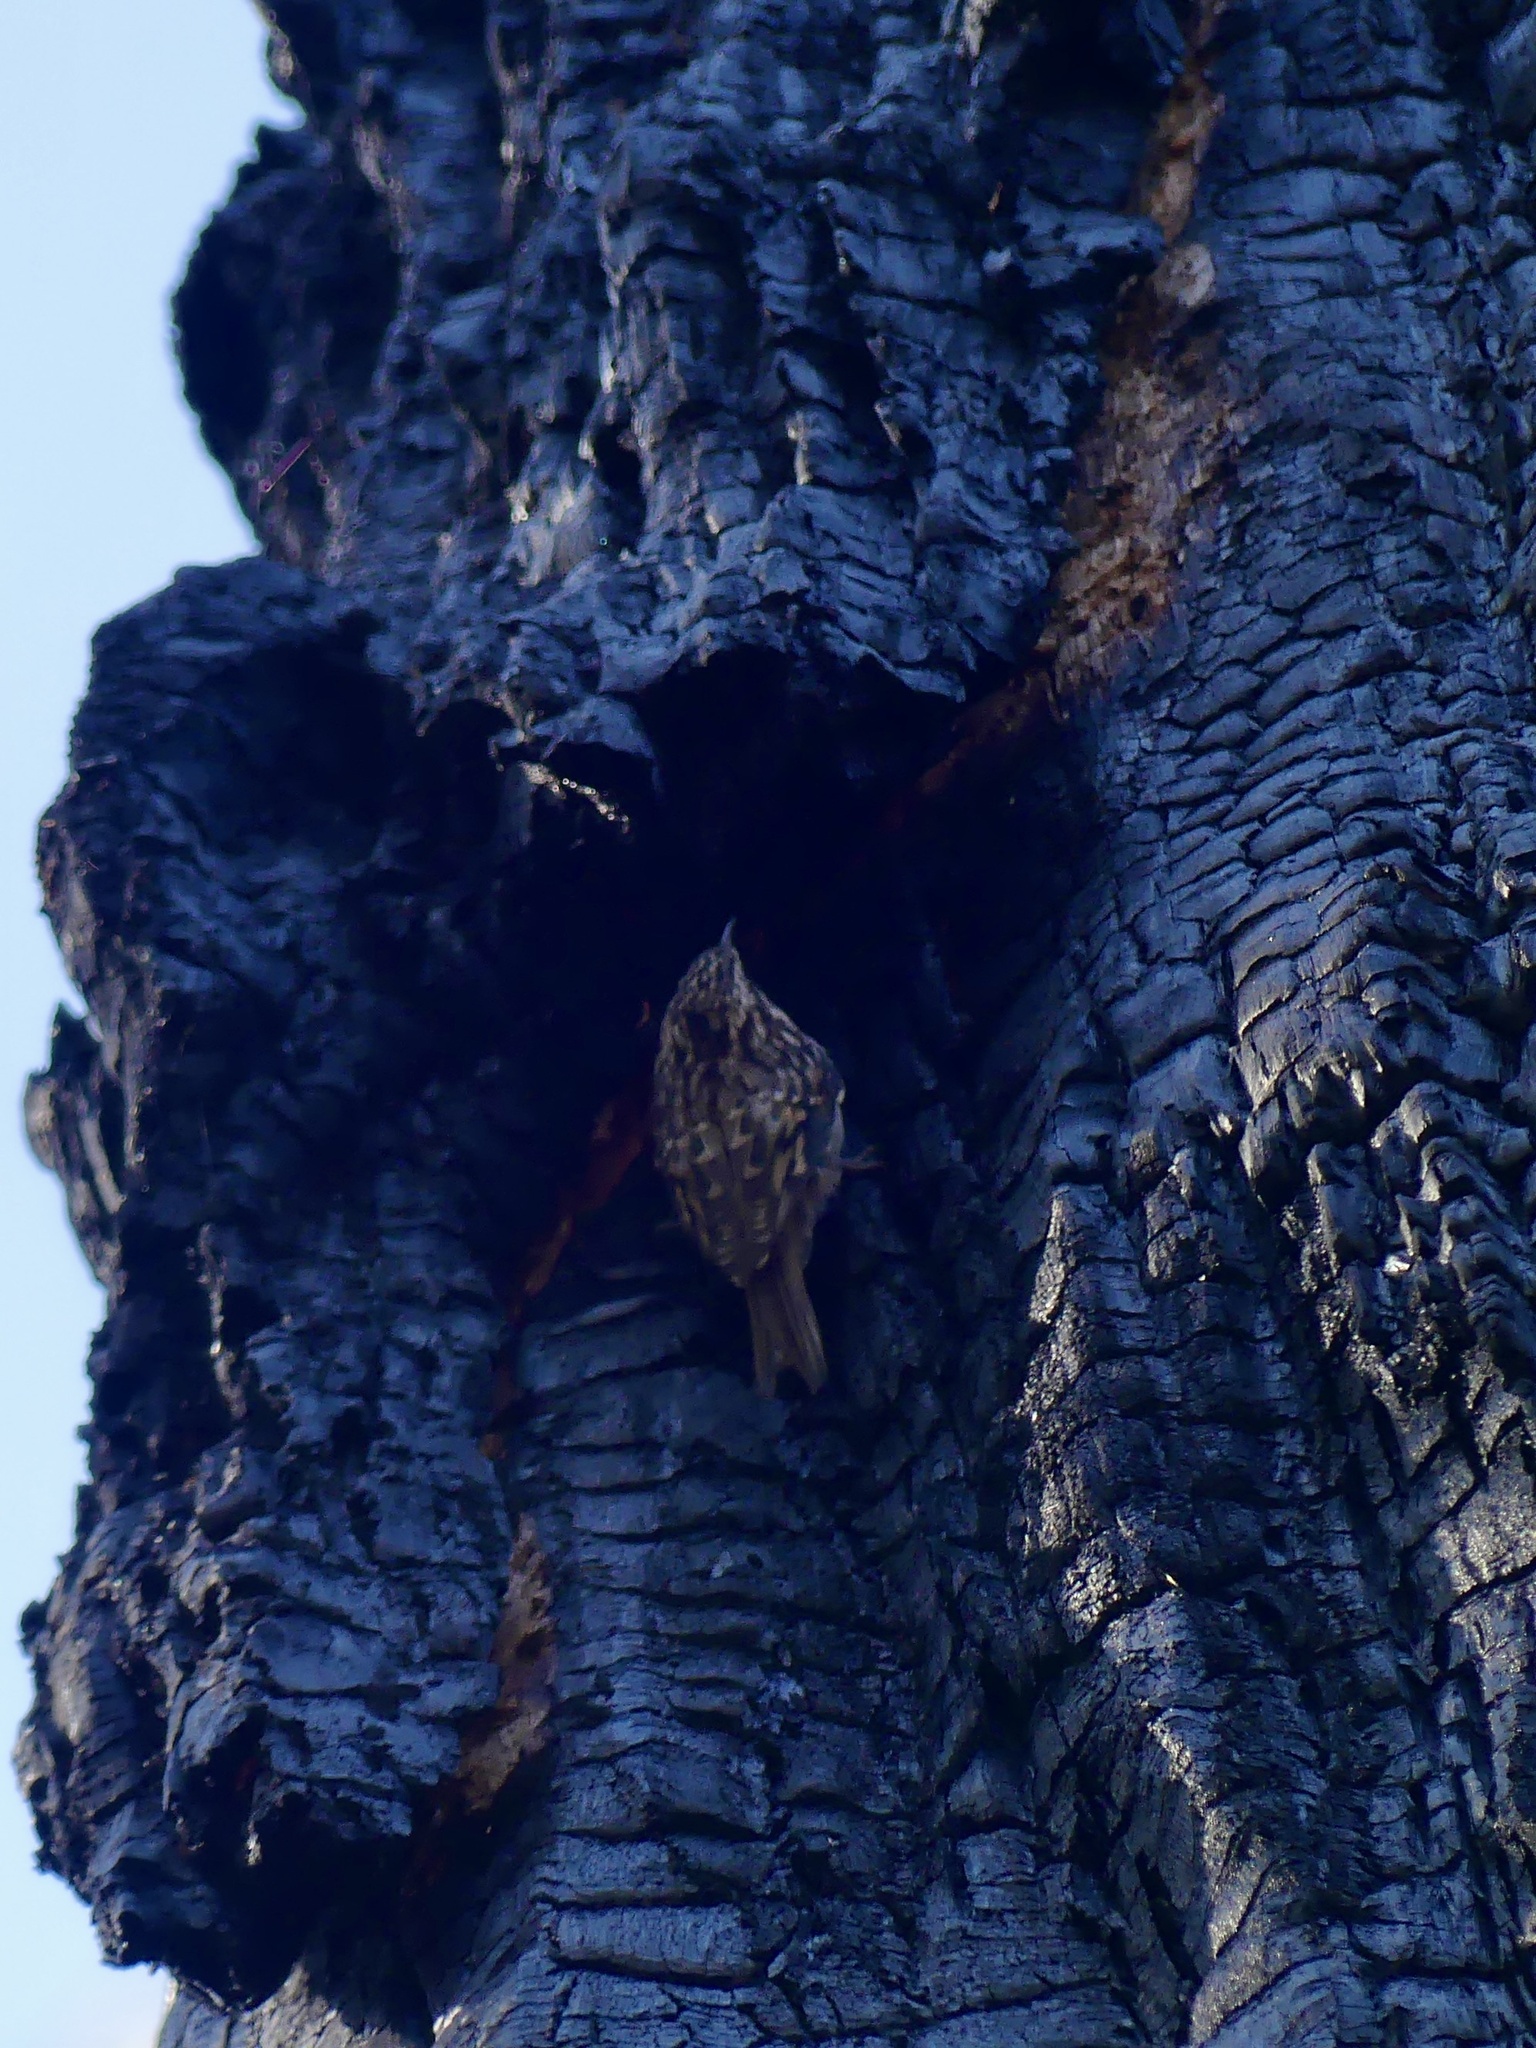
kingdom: Animalia
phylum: Chordata
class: Aves
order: Passeriformes
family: Certhiidae
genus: Certhia
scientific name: Certhia americana
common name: Brown creeper
